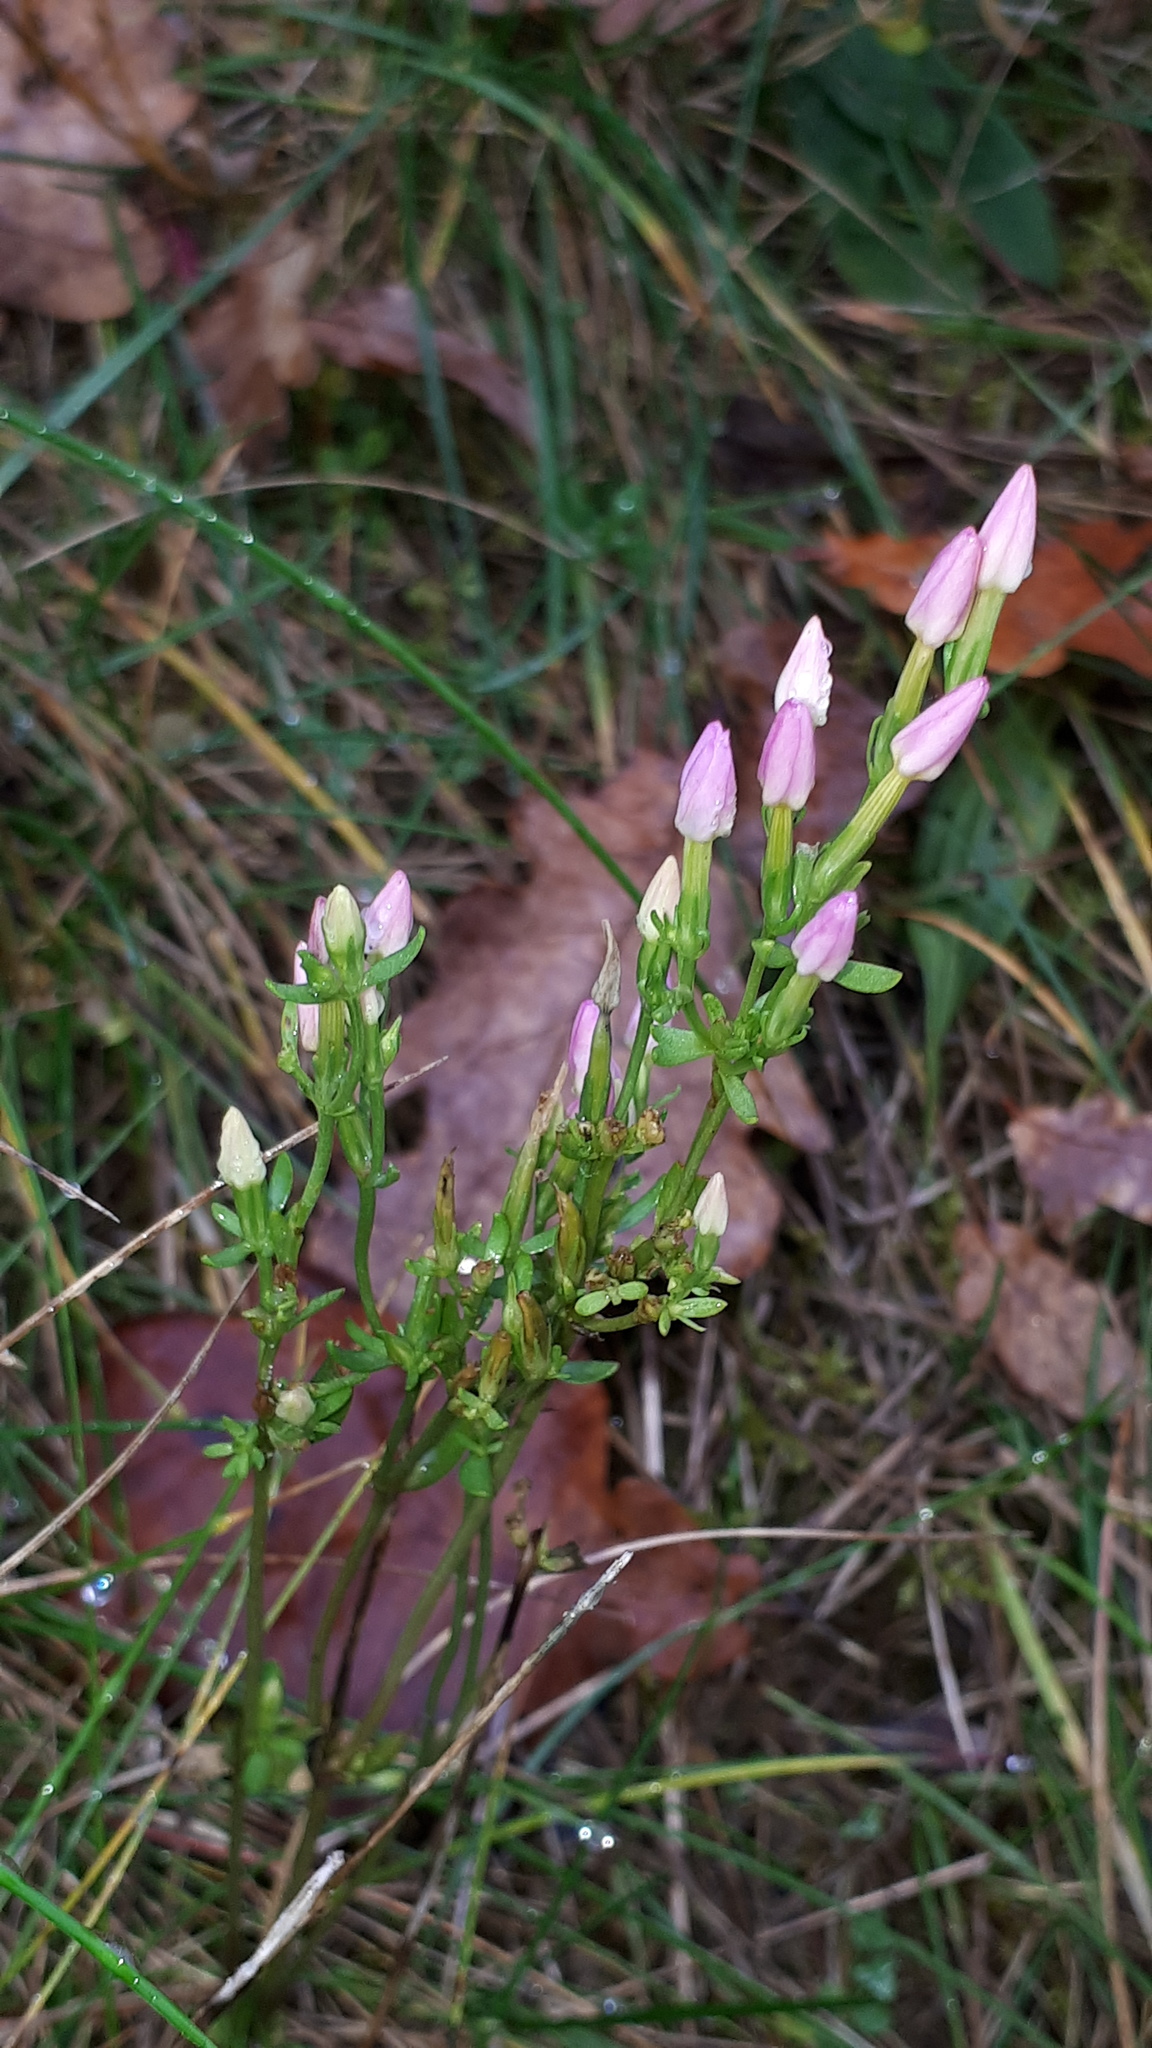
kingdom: Plantae
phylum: Tracheophyta
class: Magnoliopsida
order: Gentianales
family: Gentianaceae
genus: Centaurium
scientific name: Centaurium erythraea
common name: Common centaury
